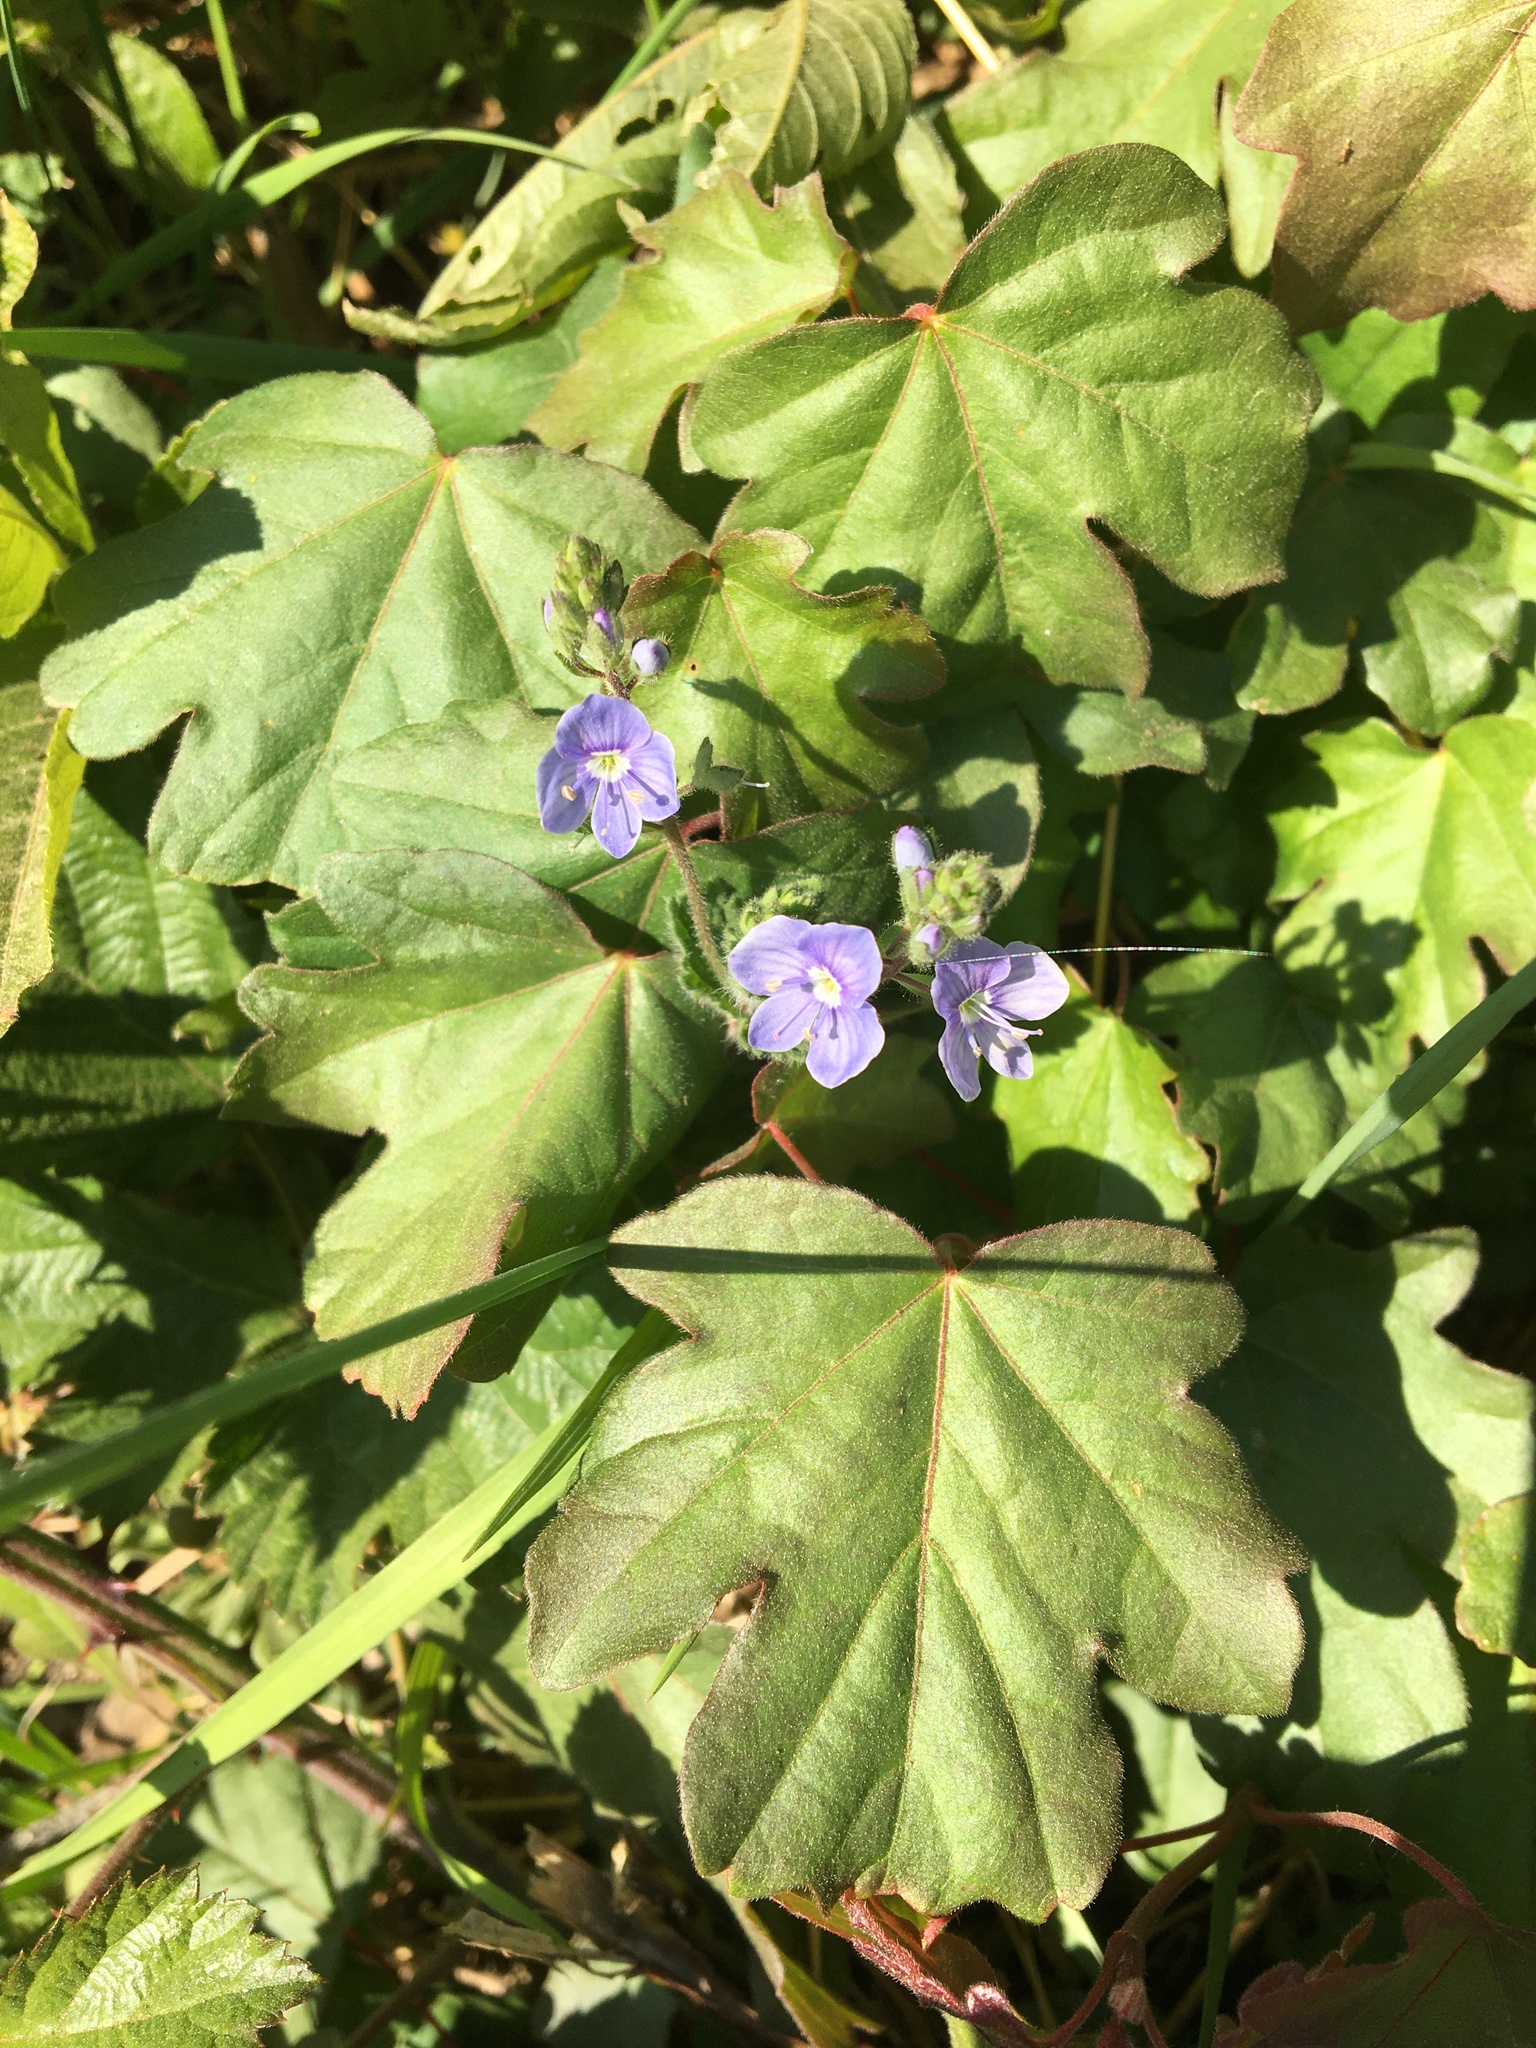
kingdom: Plantae
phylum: Tracheophyta
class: Magnoliopsida
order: Lamiales
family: Plantaginaceae
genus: Veronica
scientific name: Veronica chamaedrys
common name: Germander speedwell
